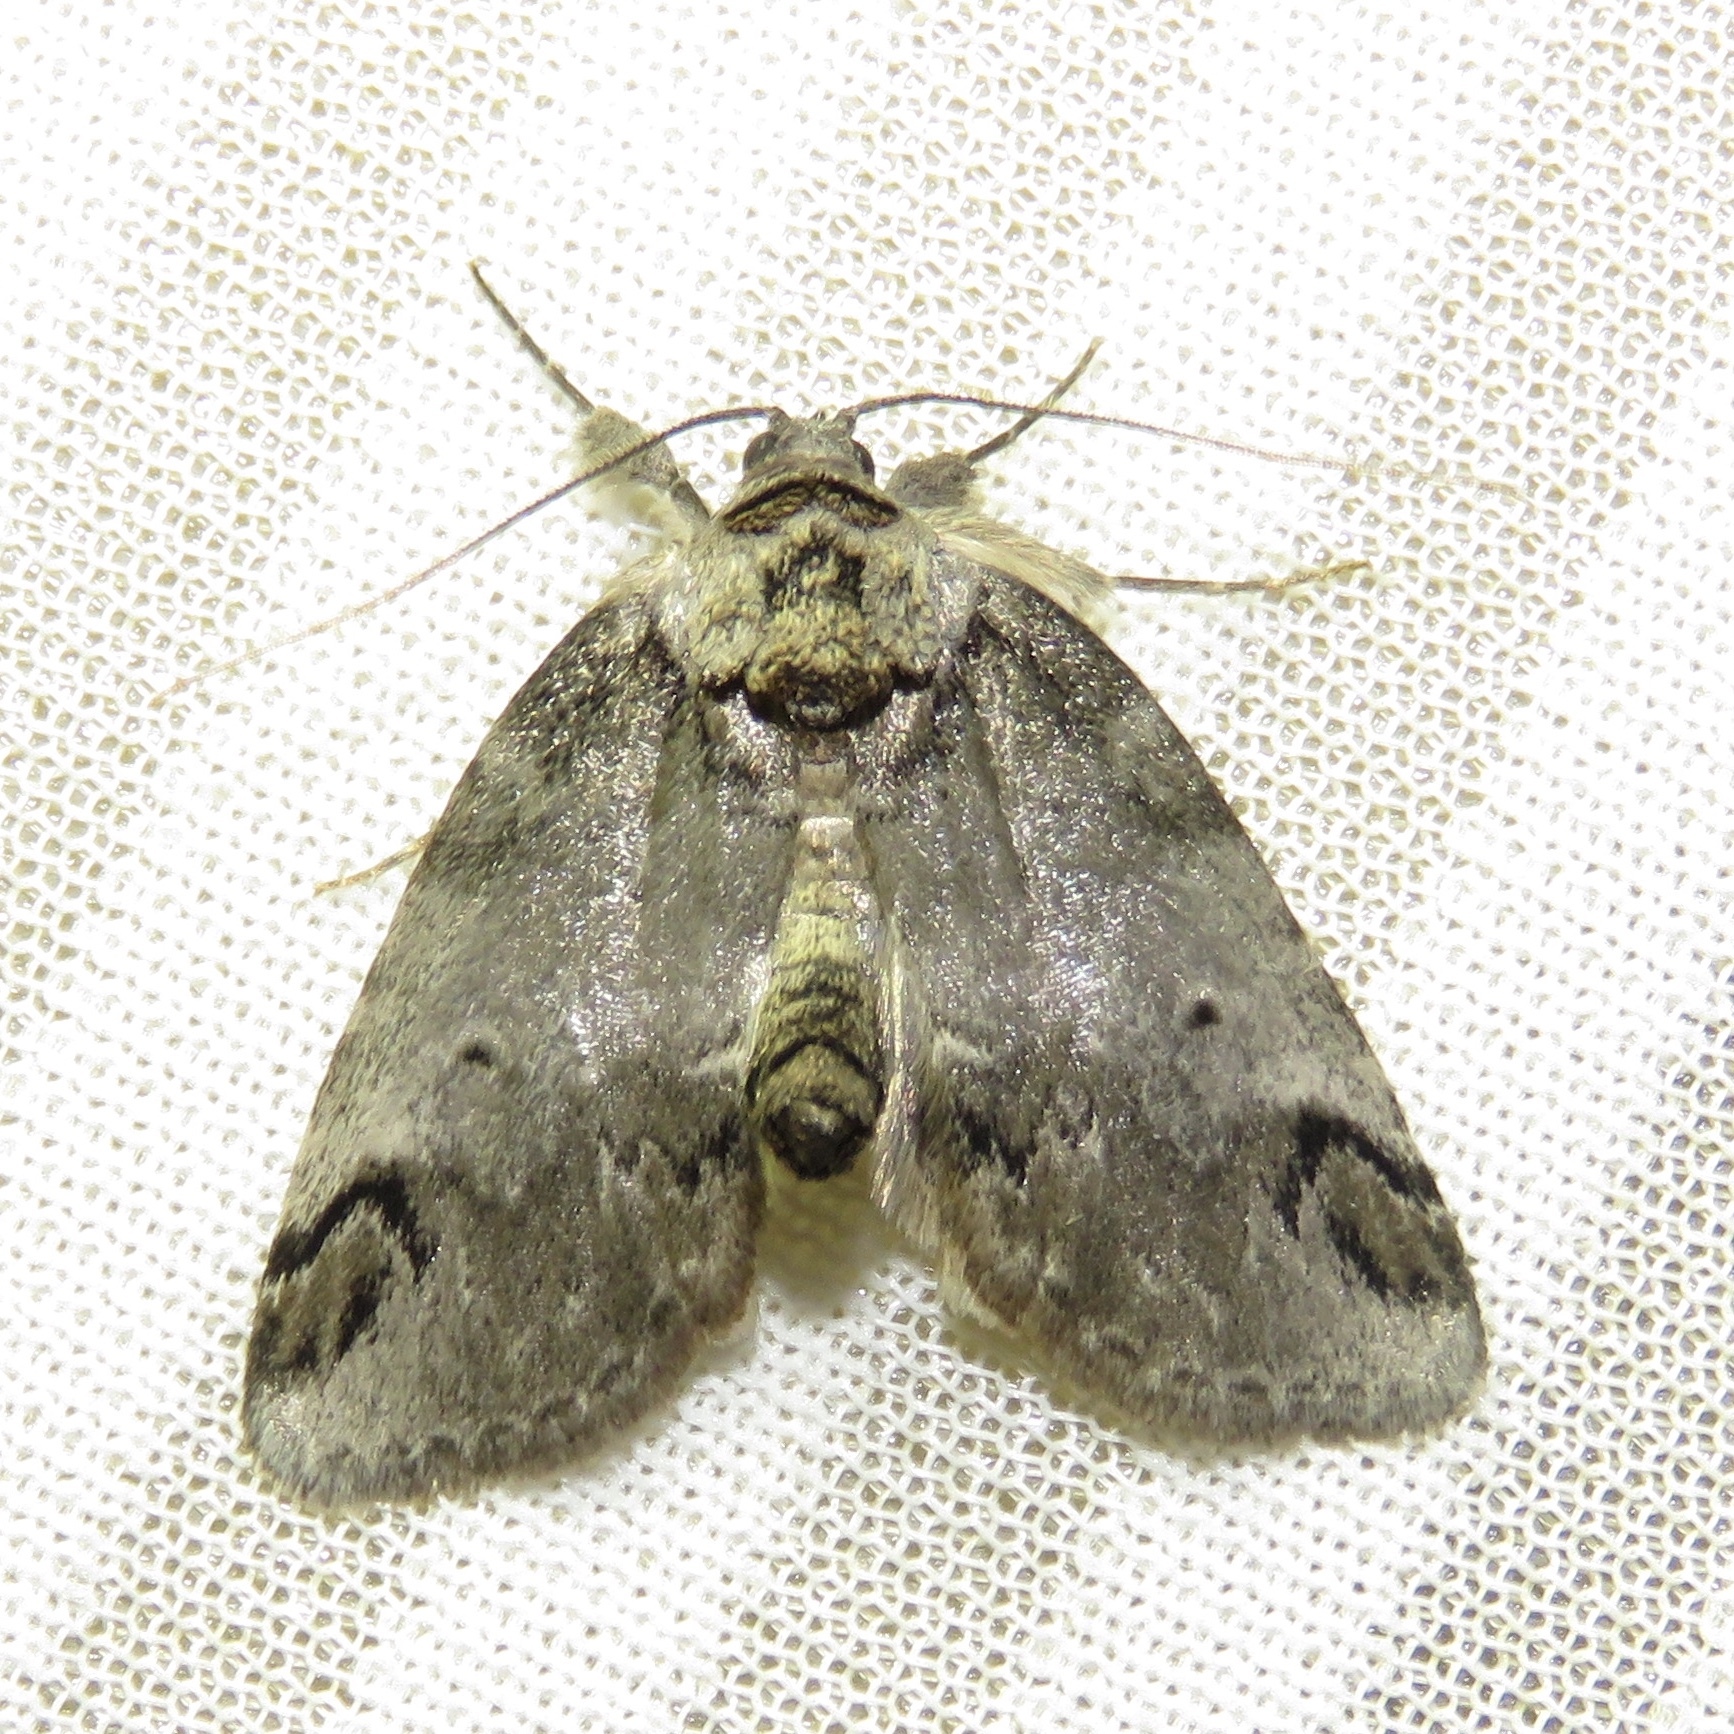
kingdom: Animalia
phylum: Arthropoda
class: Insecta
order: Lepidoptera
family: Nolidae
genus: Baileya
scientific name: Baileya dormitans
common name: Sleeping baileya moth
